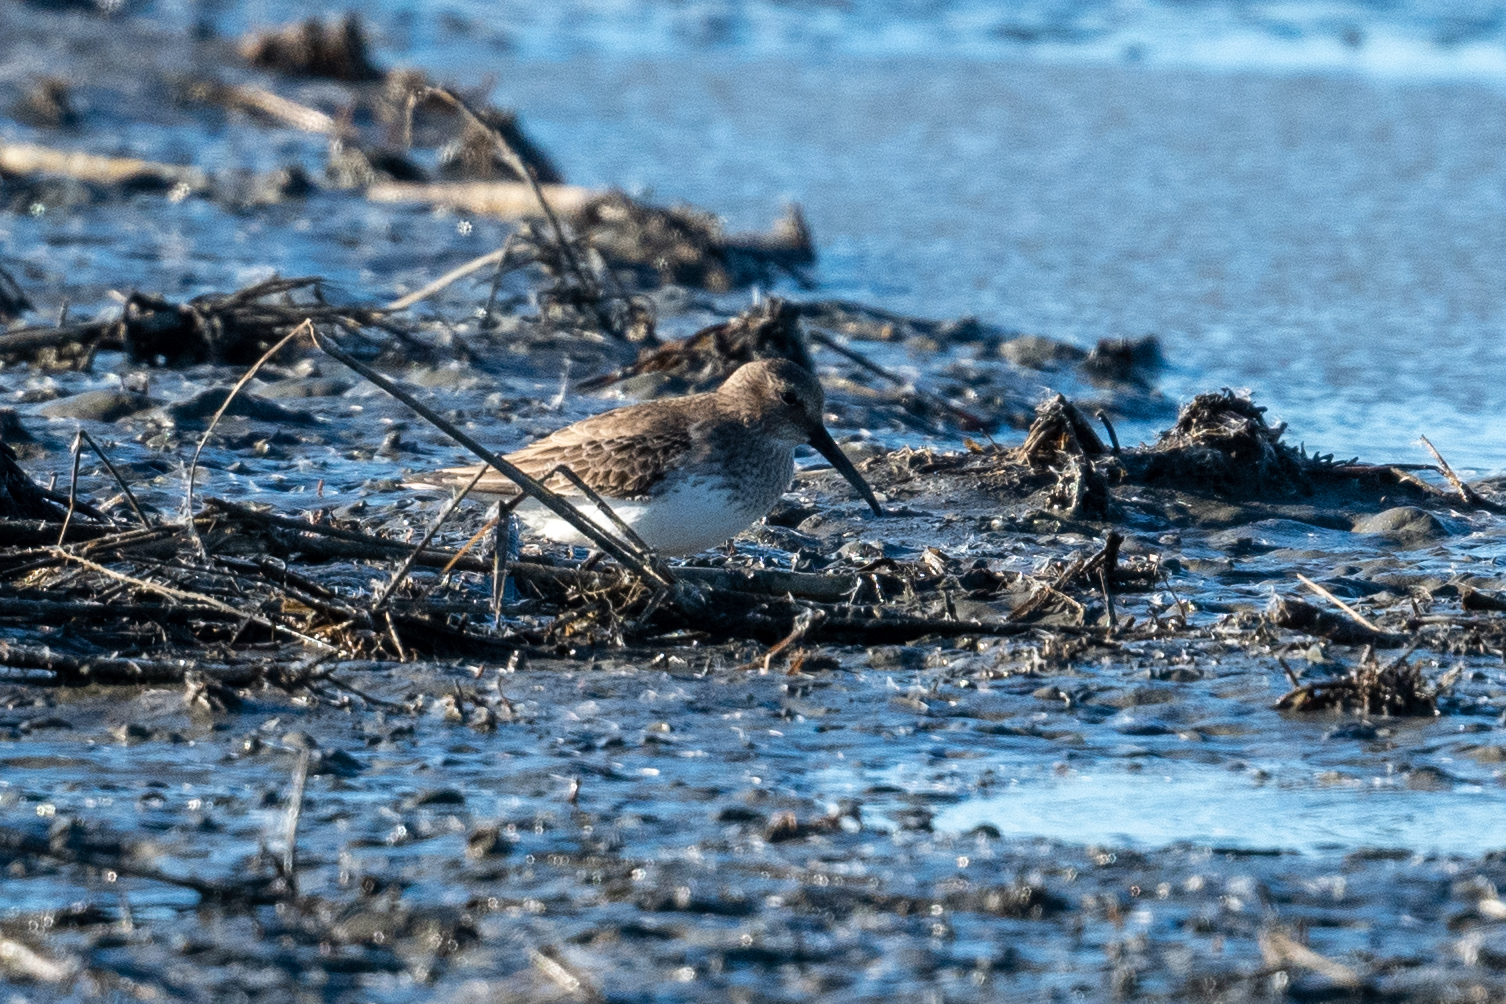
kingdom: Animalia
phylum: Chordata
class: Aves
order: Charadriiformes
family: Scolopacidae
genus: Calidris
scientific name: Calidris alpina
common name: Dunlin
